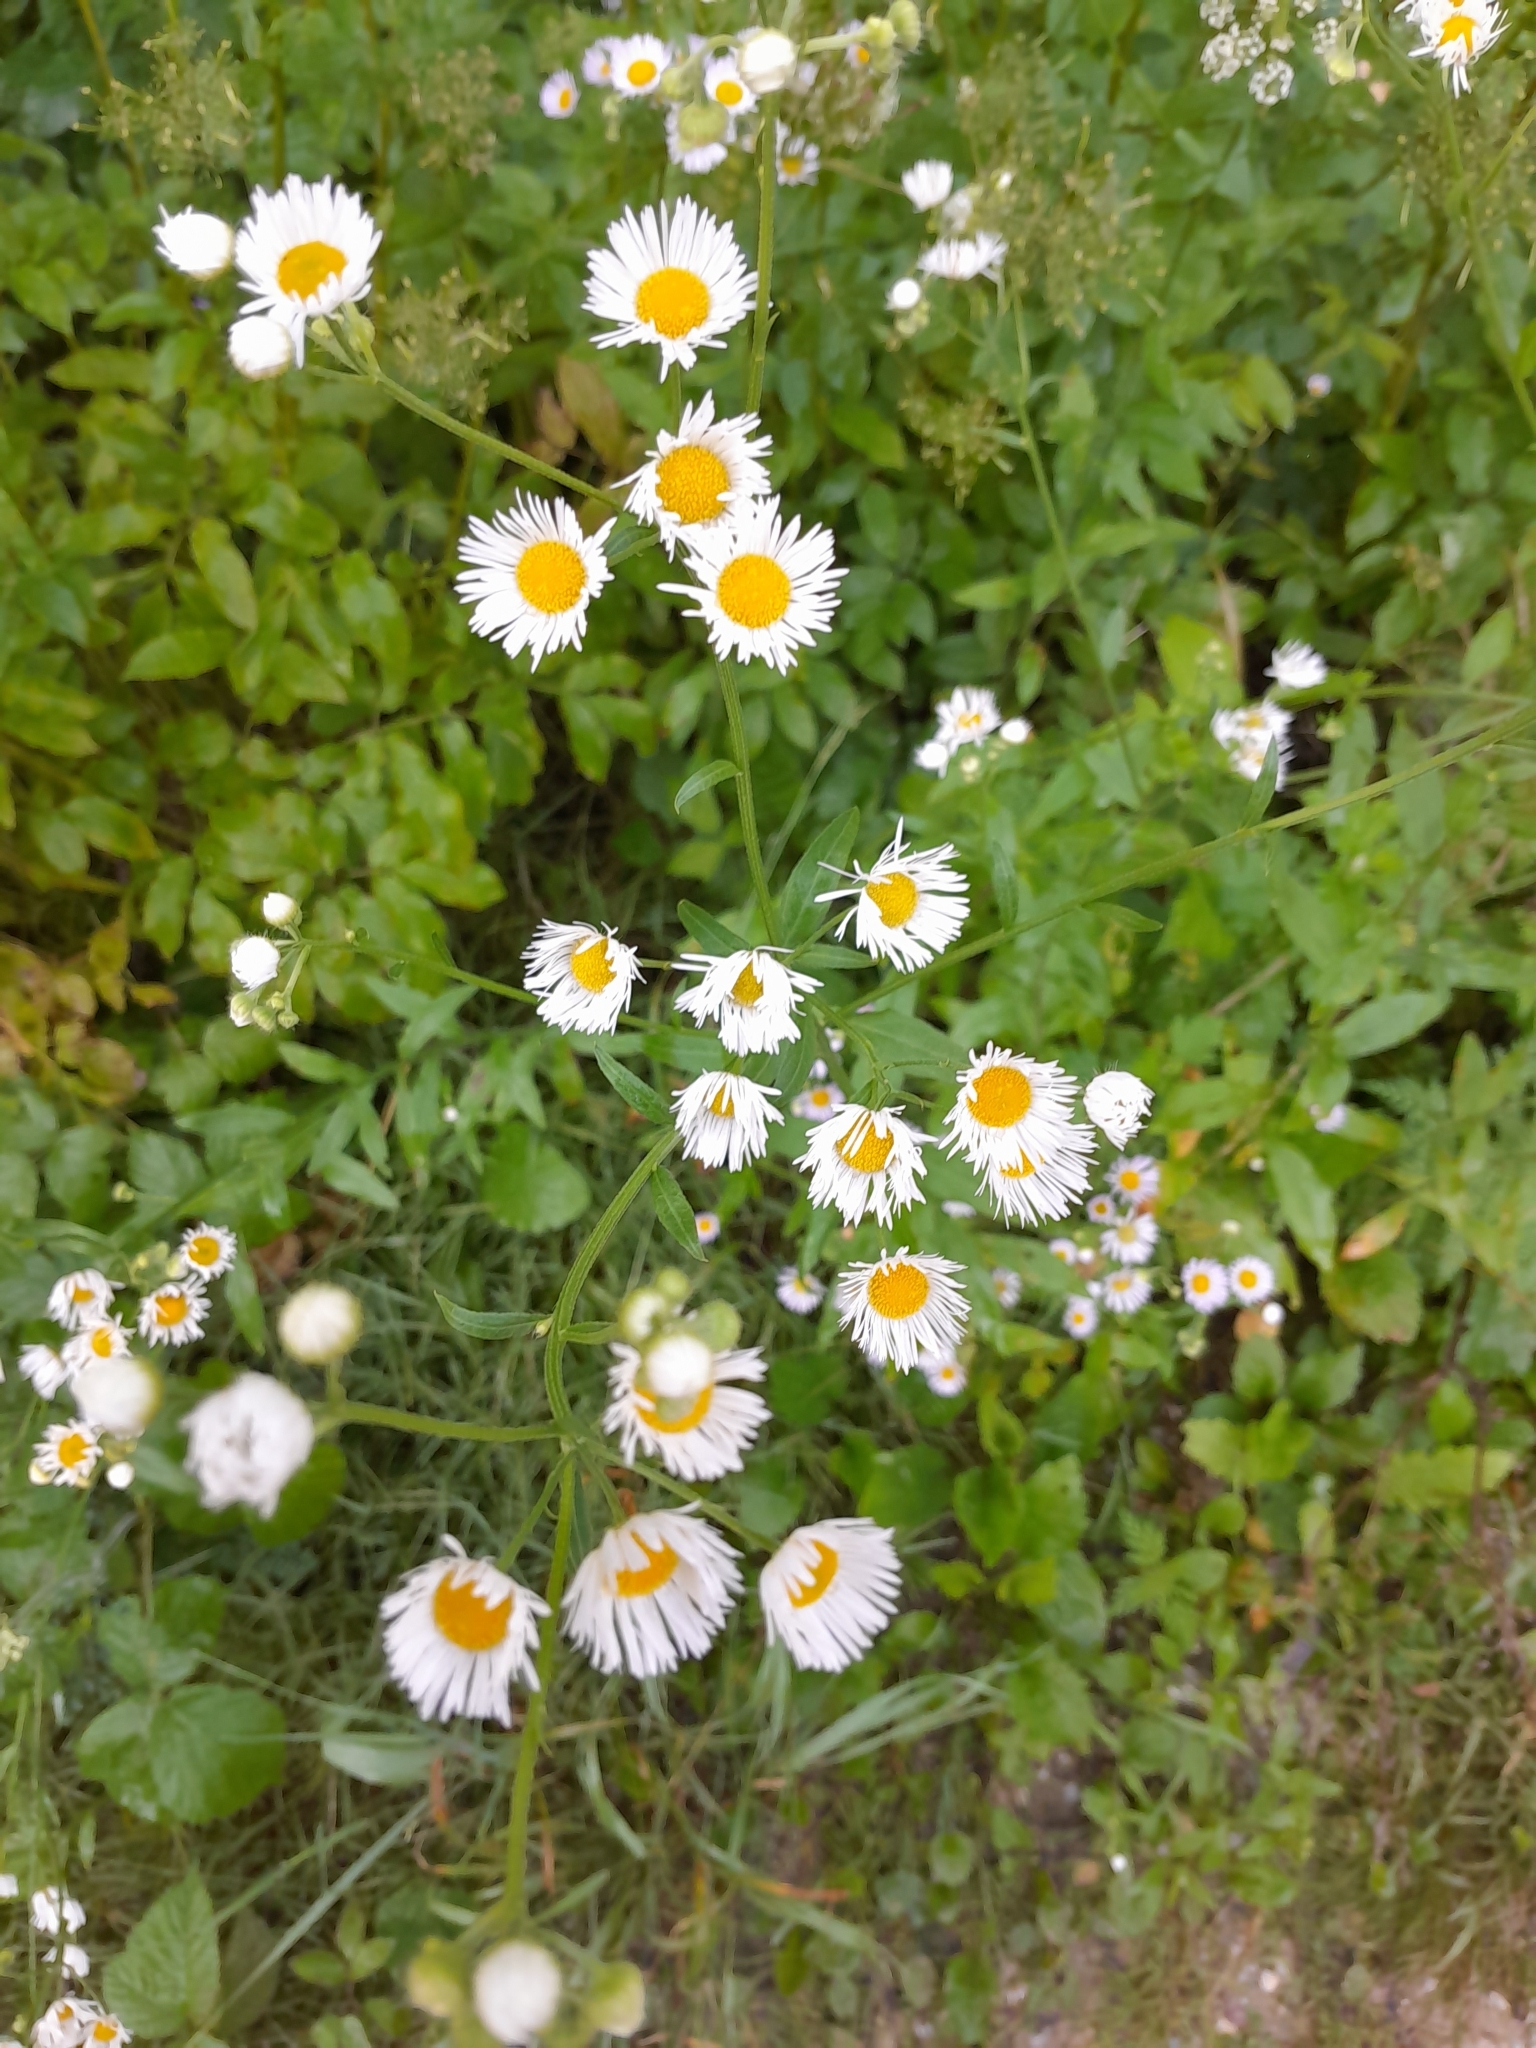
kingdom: Plantae
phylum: Tracheophyta
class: Magnoliopsida
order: Asterales
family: Asteraceae
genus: Erigeron
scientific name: Erigeron annuus
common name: Tall fleabane
